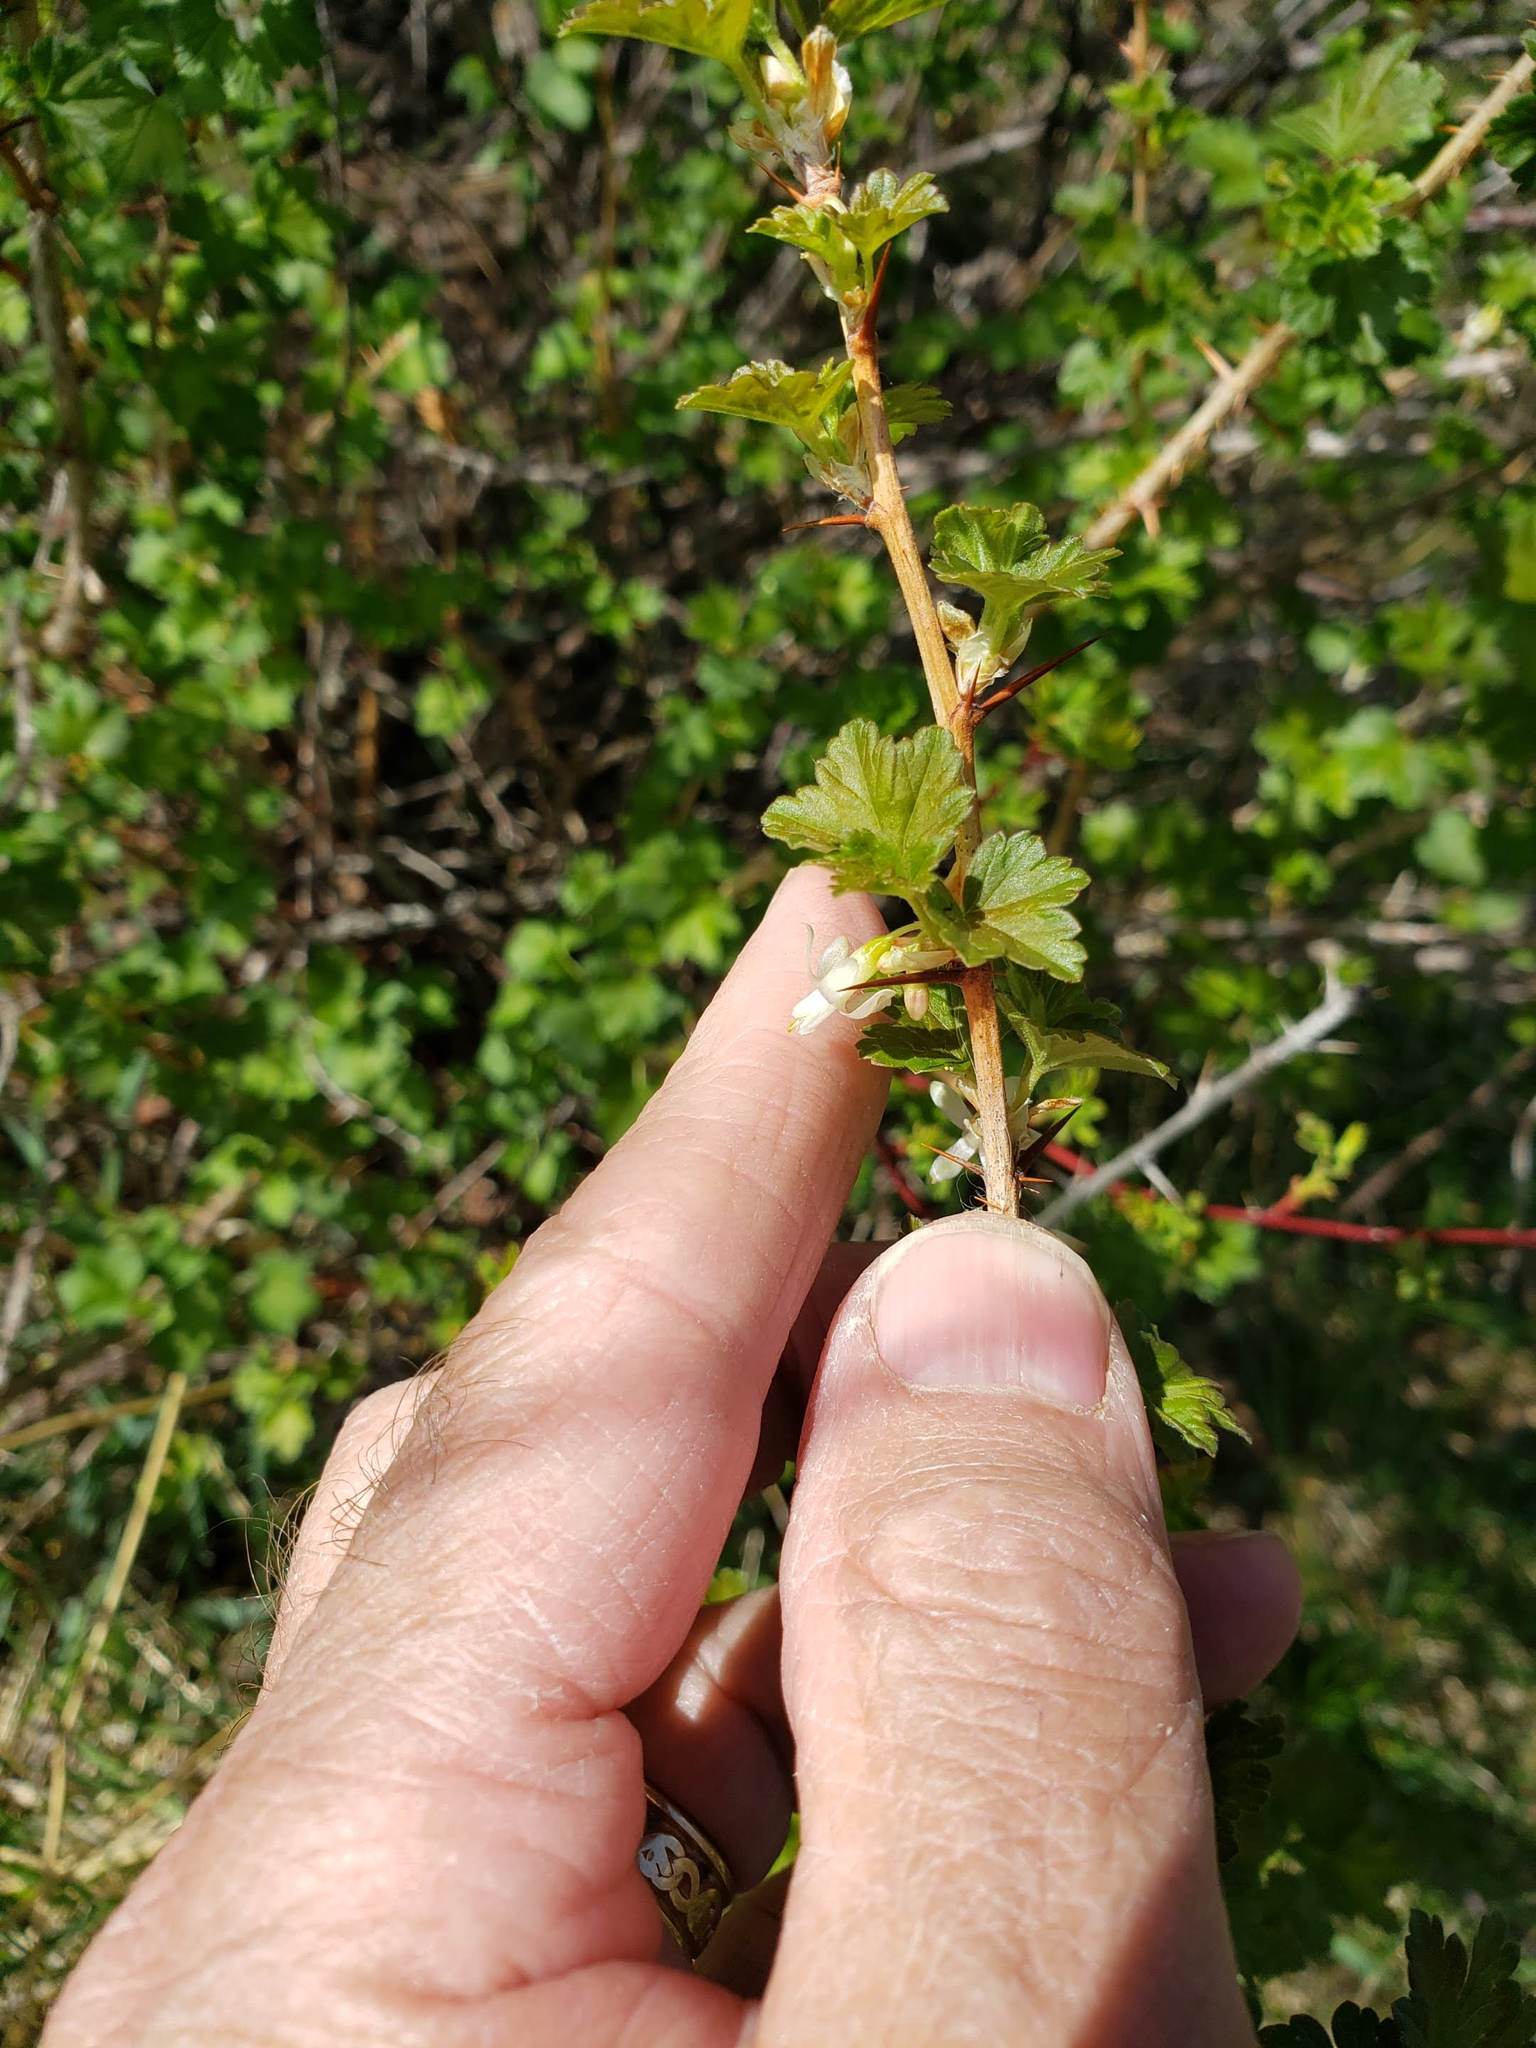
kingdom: Plantae
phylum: Tracheophyta
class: Magnoliopsida
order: Saxifragales
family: Grossulariaceae
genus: Ribes
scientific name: Ribes oxyacanthoides
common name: Northern gooseberry
